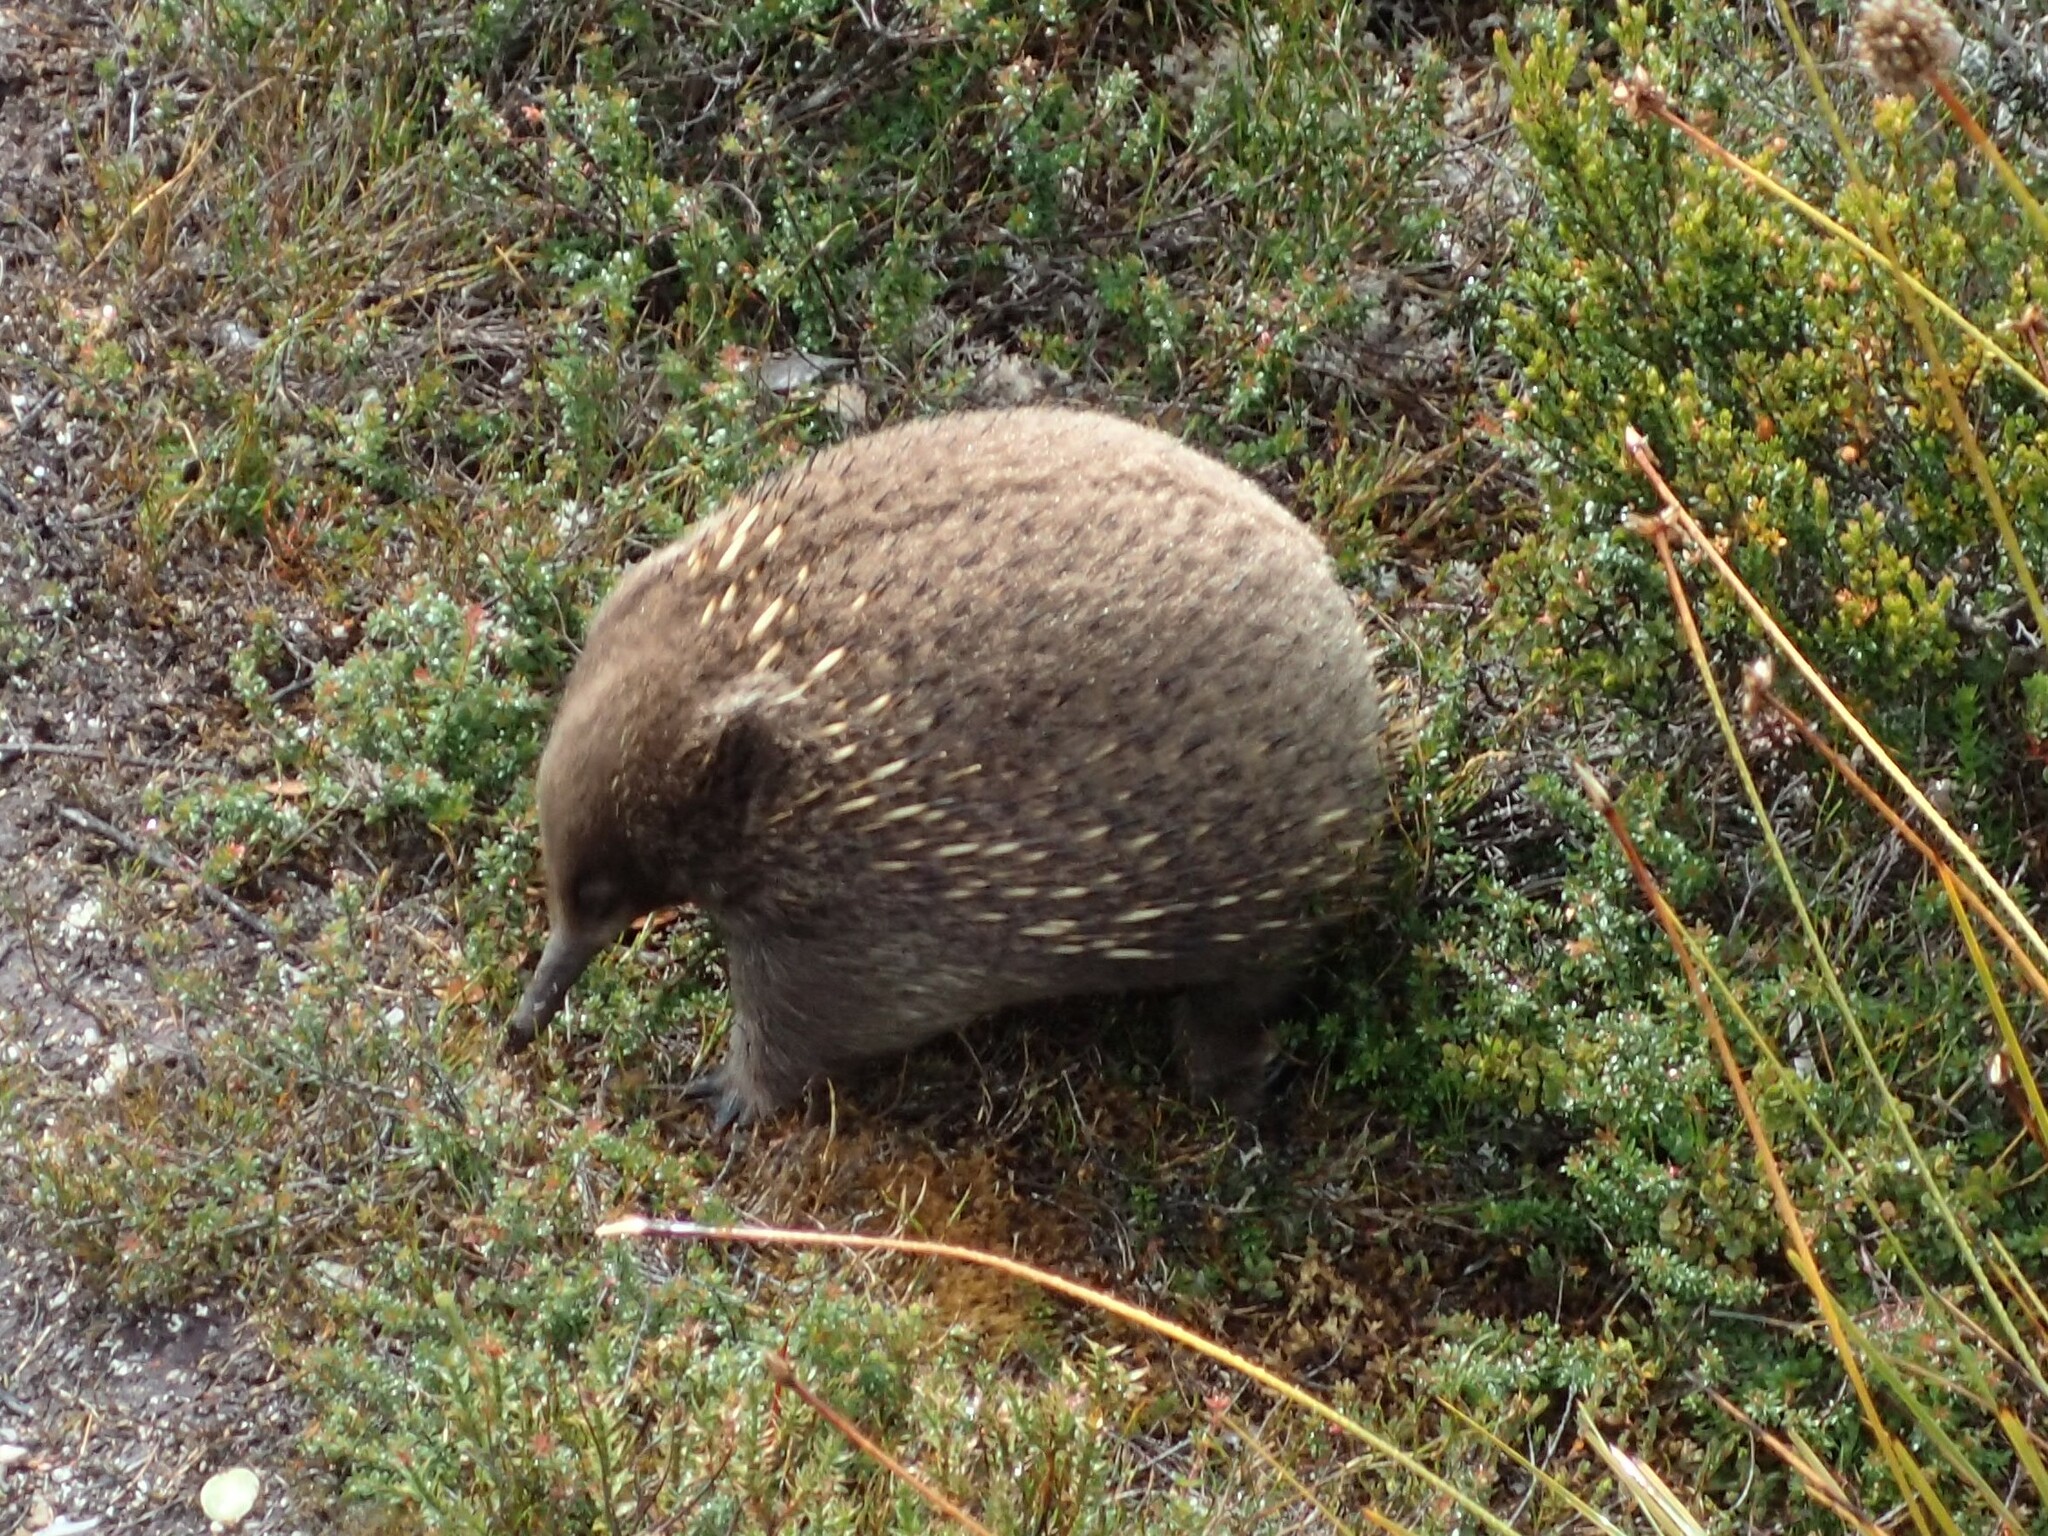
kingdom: Animalia
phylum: Chordata
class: Mammalia
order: Monotremata
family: Tachyglossidae
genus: Tachyglossus
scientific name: Tachyglossus aculeatus
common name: Short-beaked echidna
